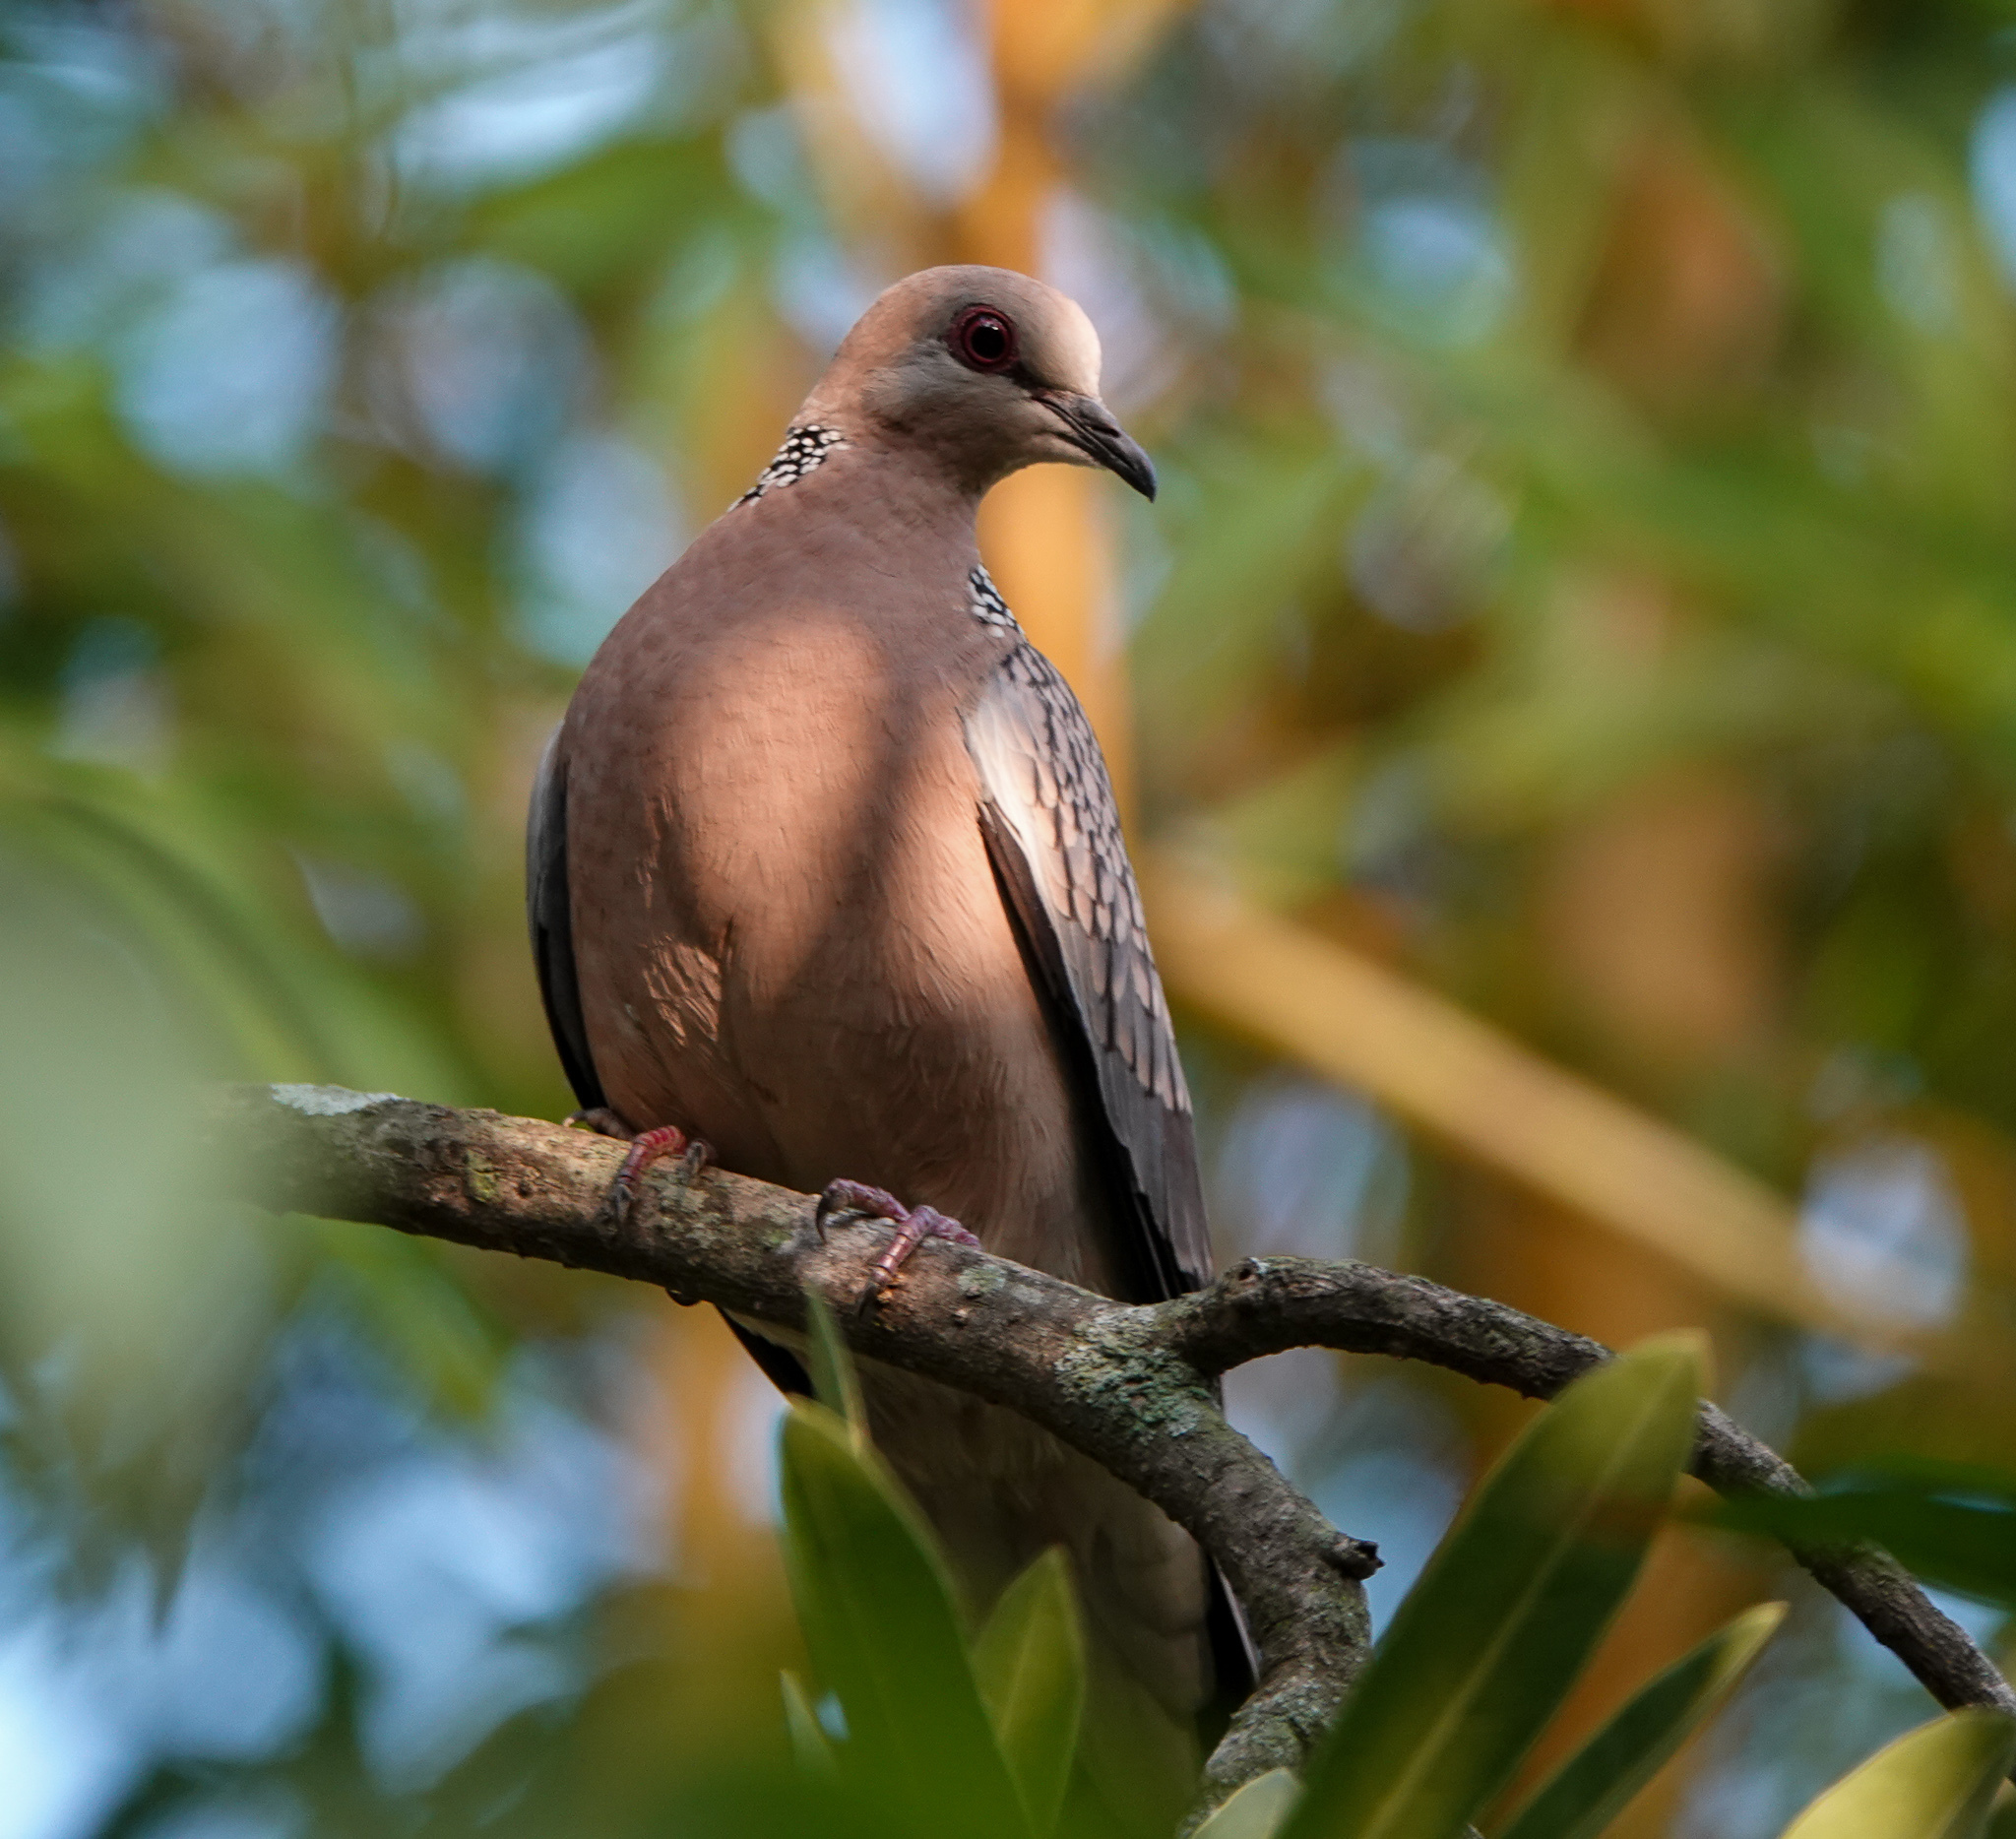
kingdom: Animalia
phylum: Chordata
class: Aves
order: Columbiformes
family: Columbidae
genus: Spilopelia
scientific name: Spilopelia chinensis
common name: Spotted dove
